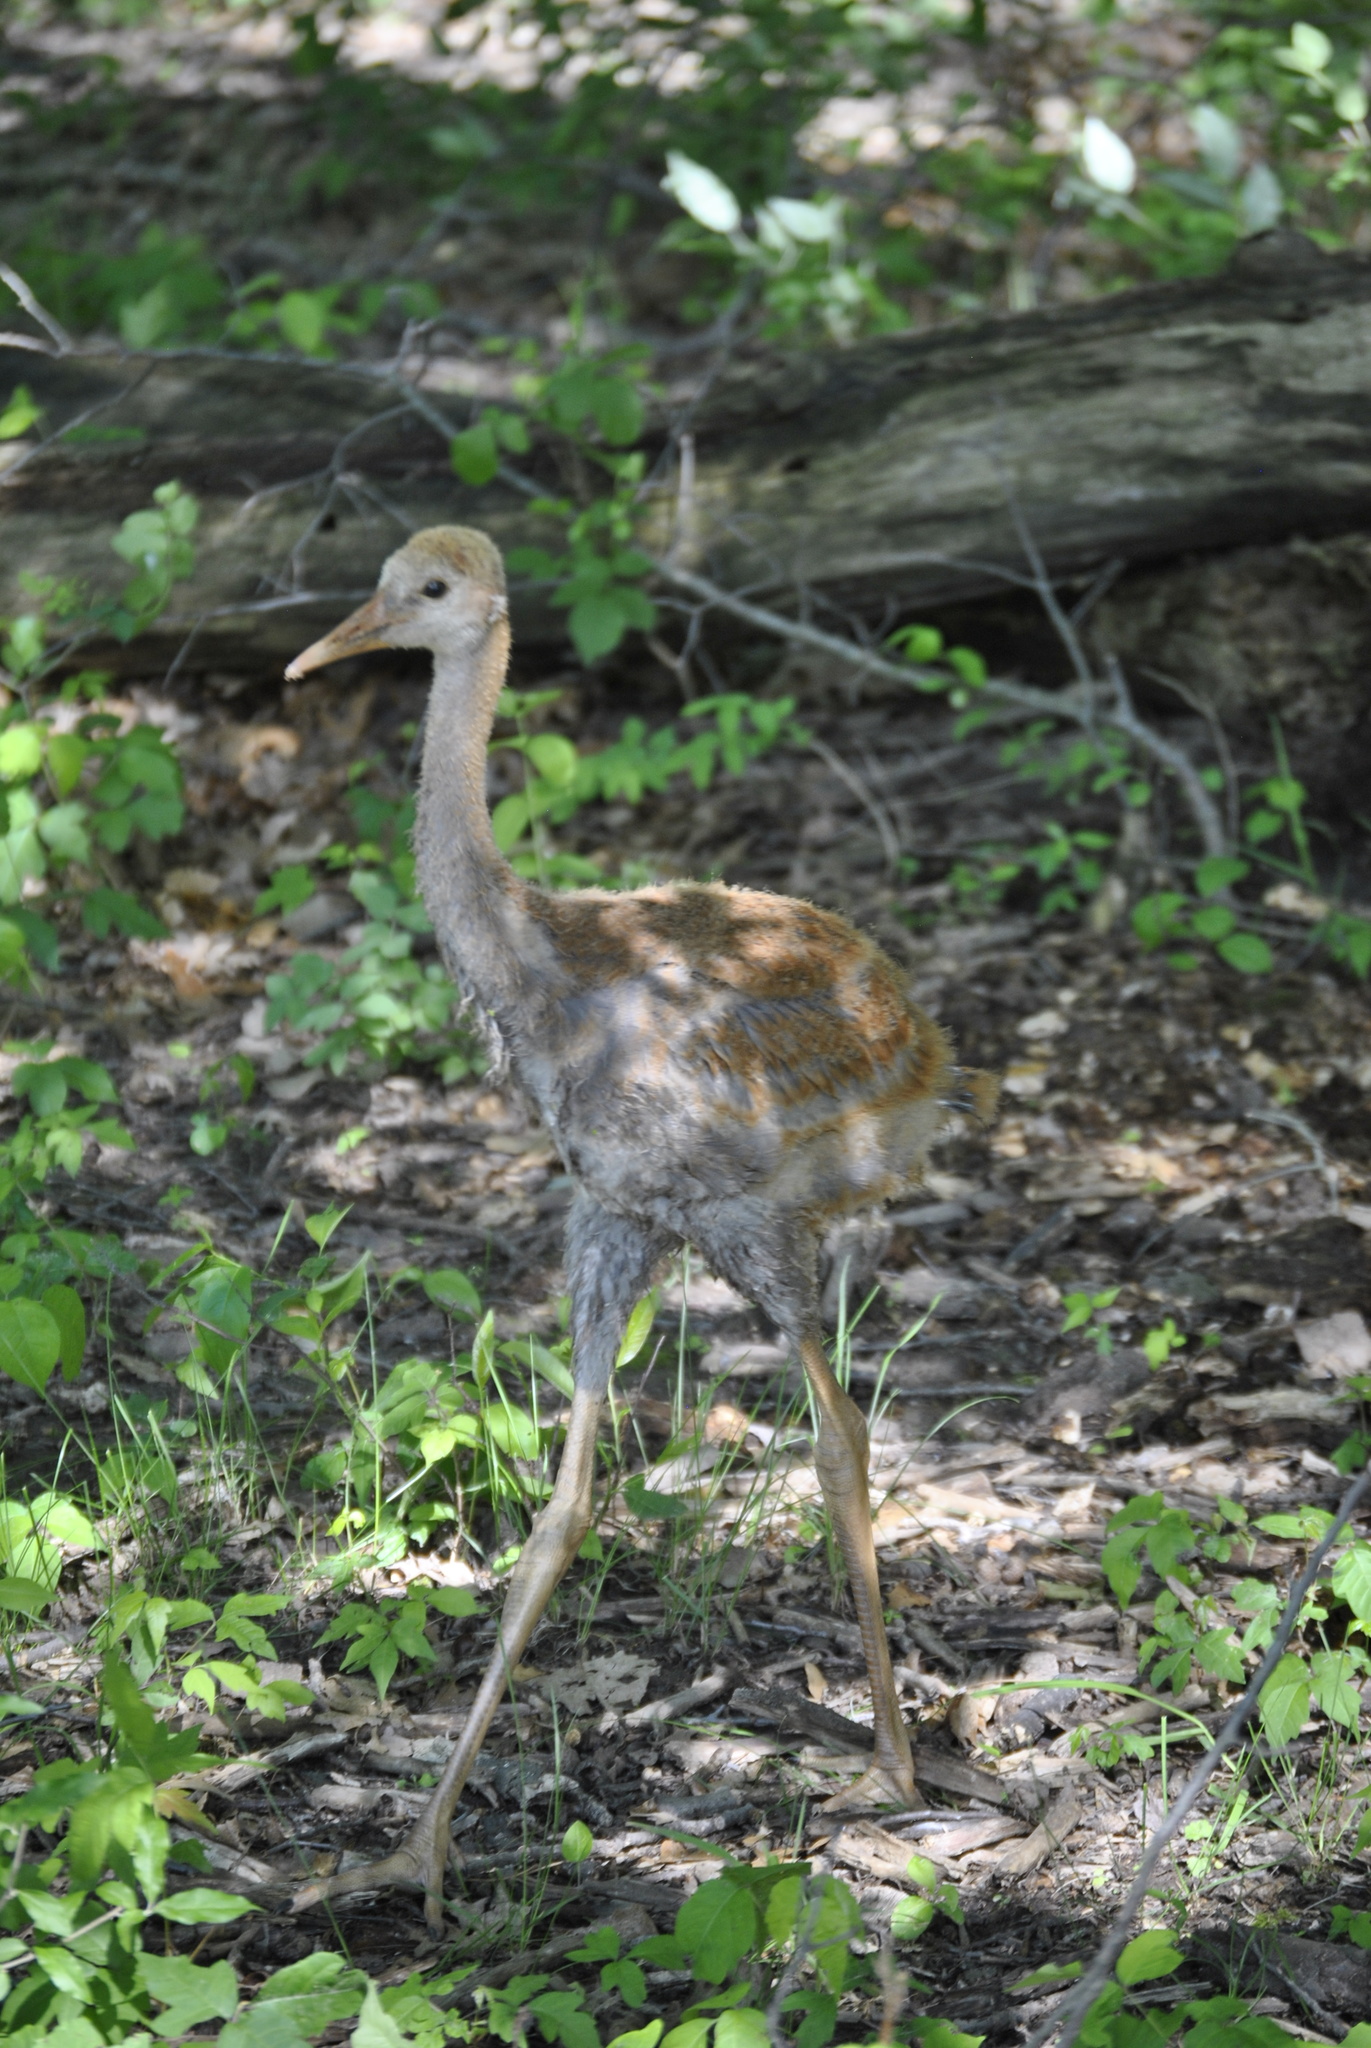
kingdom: Animalia
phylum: Chordata
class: Aves
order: Gruiformes
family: Gruidae
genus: Grus
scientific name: Grus canadensis
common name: Sandhill crane
